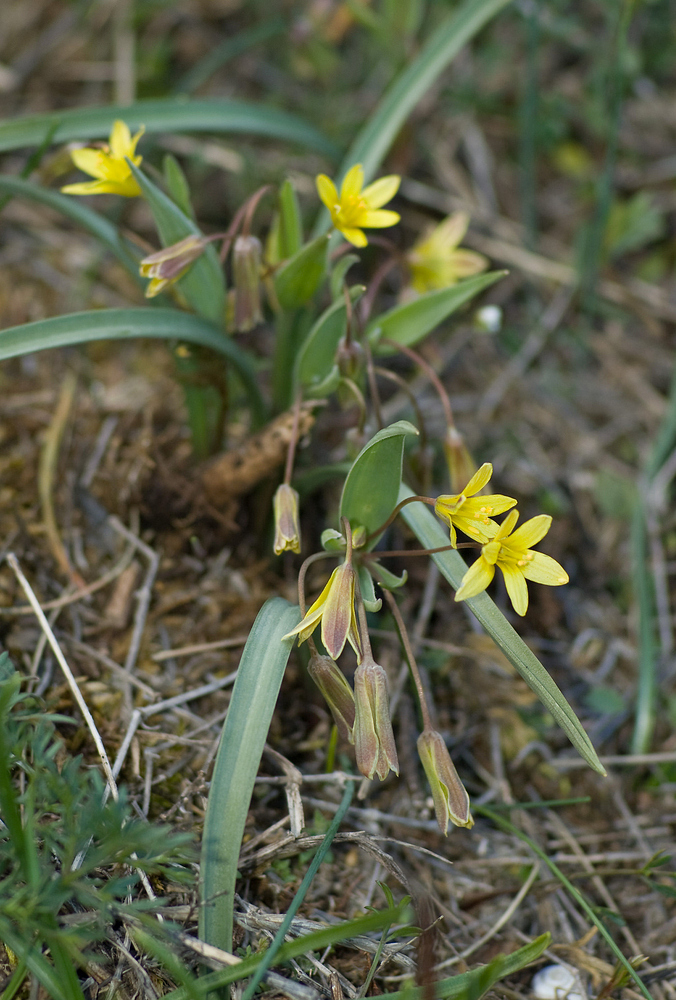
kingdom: Plantae
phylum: Tracheophyta
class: Liliopsida
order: Liliales
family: Liliaceae
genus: Gagea
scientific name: Gagea reverchonii
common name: Reverchon’s gagea
